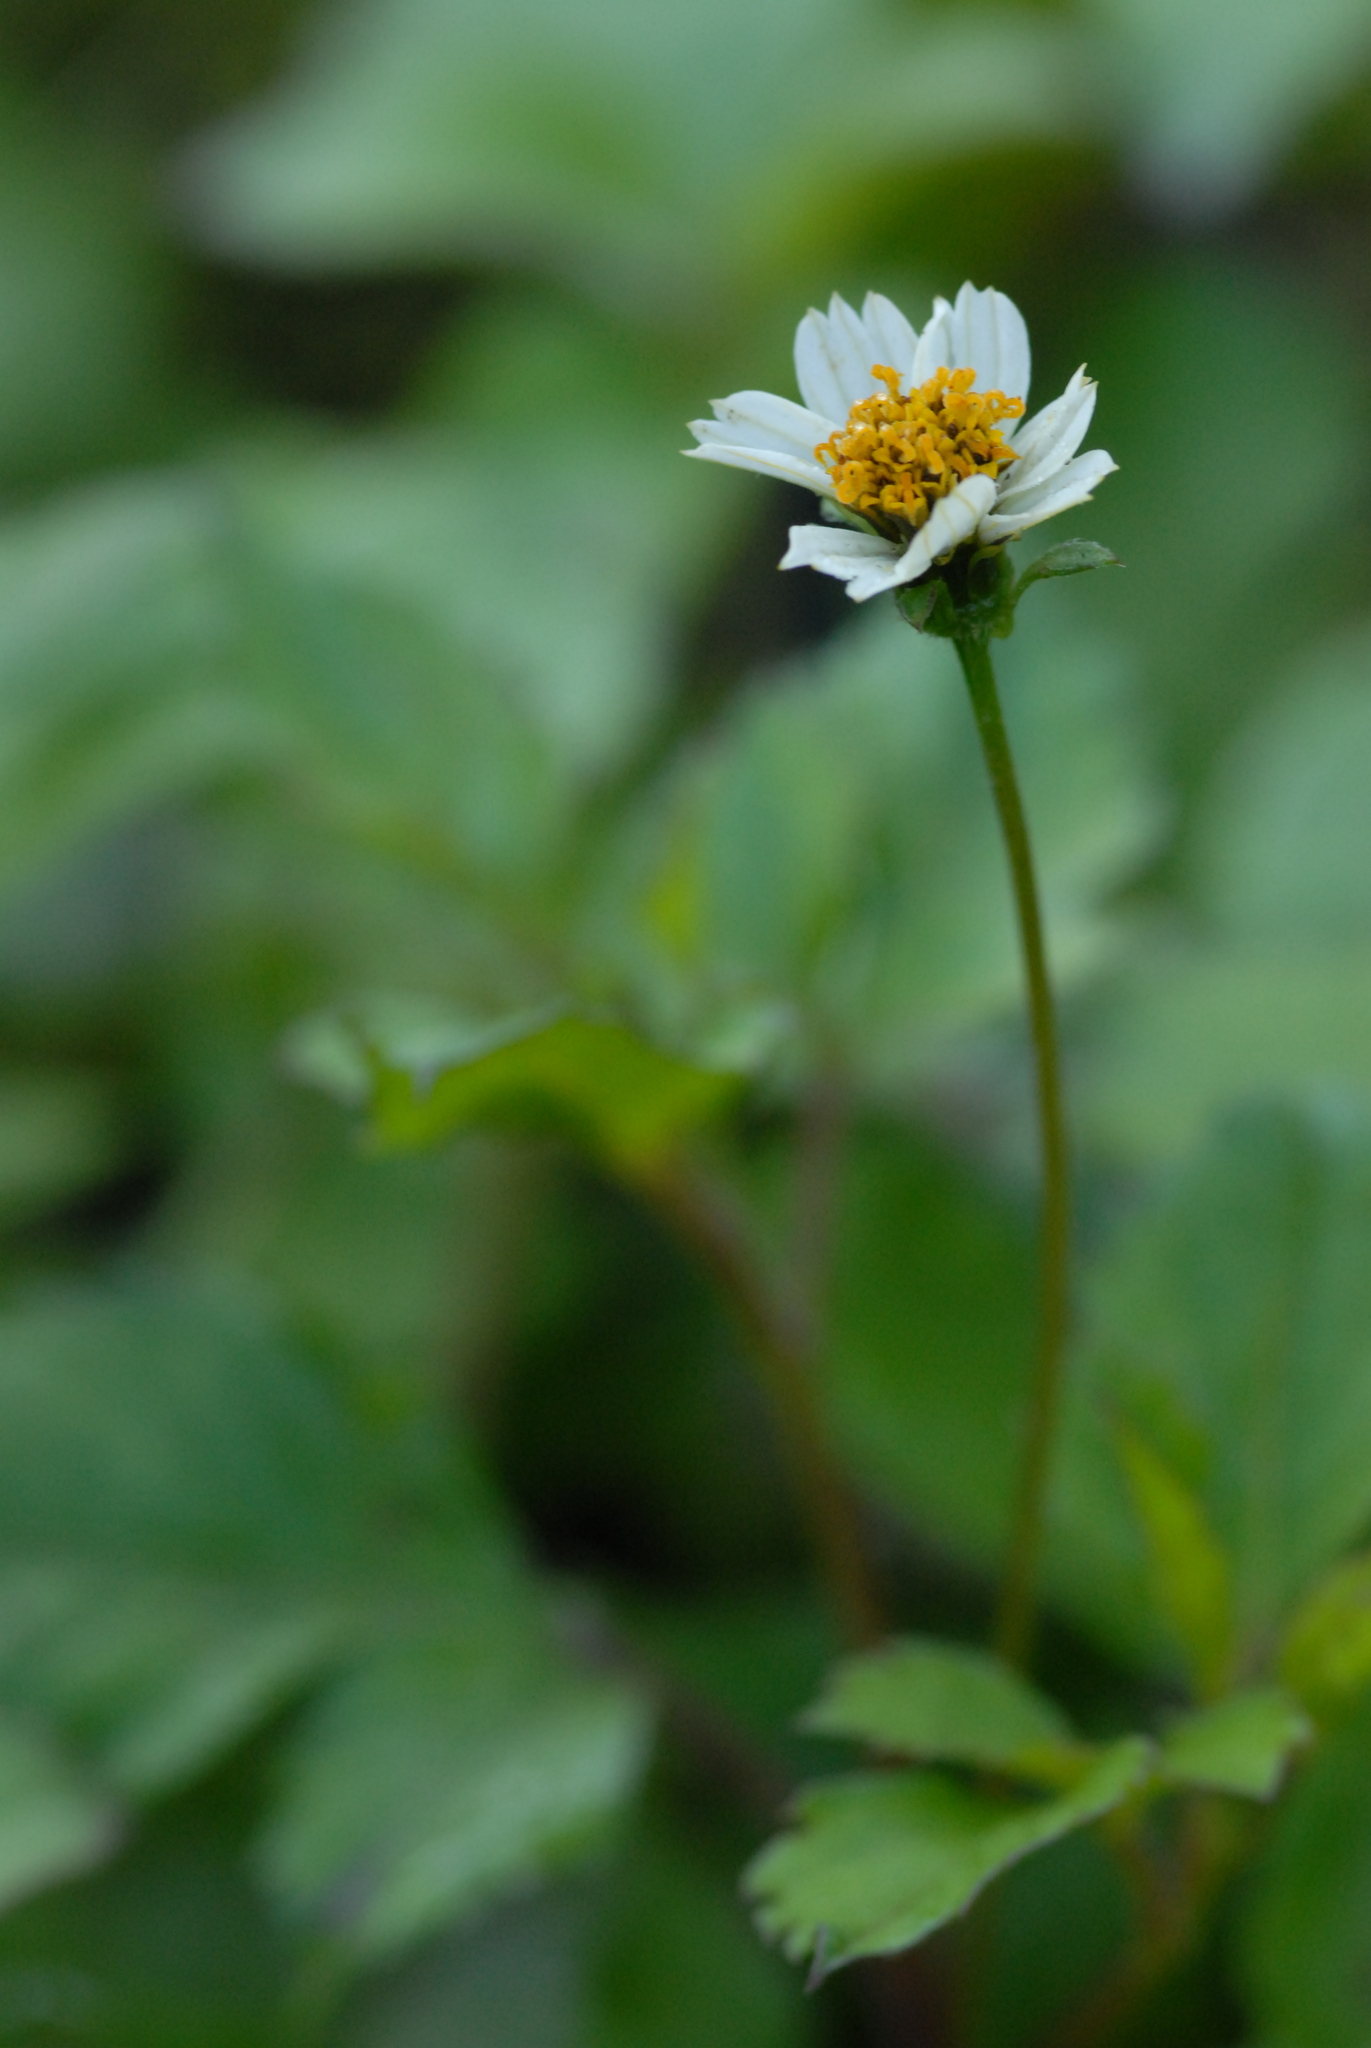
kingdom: Plantae
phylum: Tracheophyta
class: Magnoliopsida
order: Asterales
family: Asteraceae
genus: Tridax
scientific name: Tridax procumbens
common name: Coatbuttons
